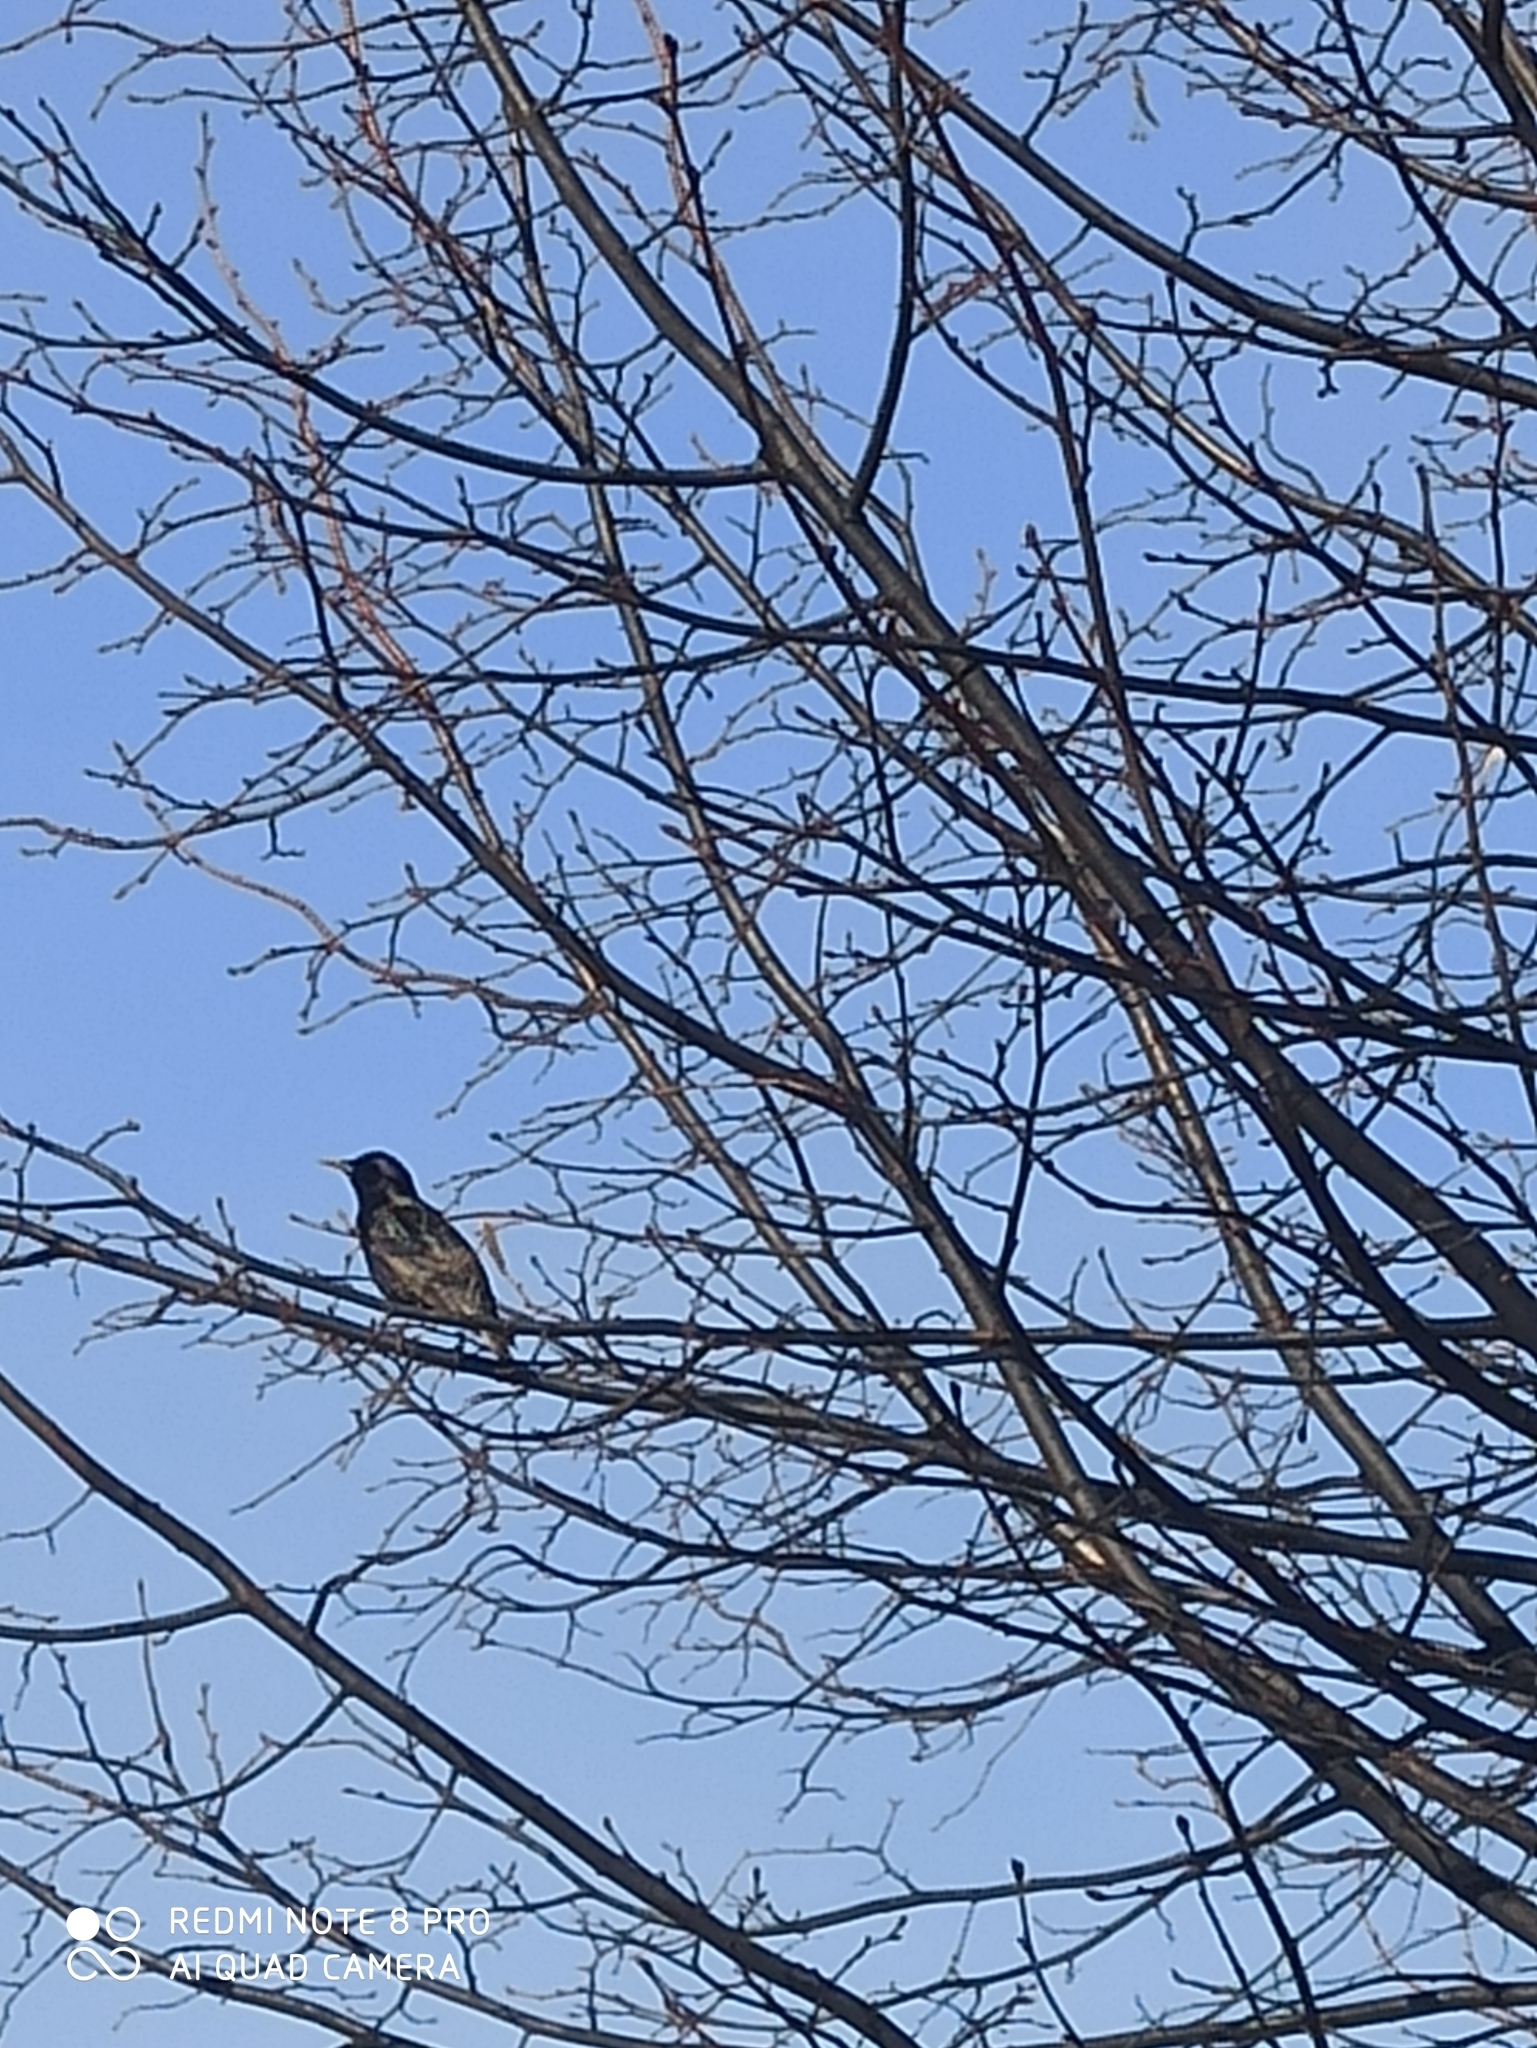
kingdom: Animalia
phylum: Chordata
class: Aves
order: Passeriformes
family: Sturnidae
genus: Sturnus
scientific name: Sturnus vulgaris
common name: Common starling
